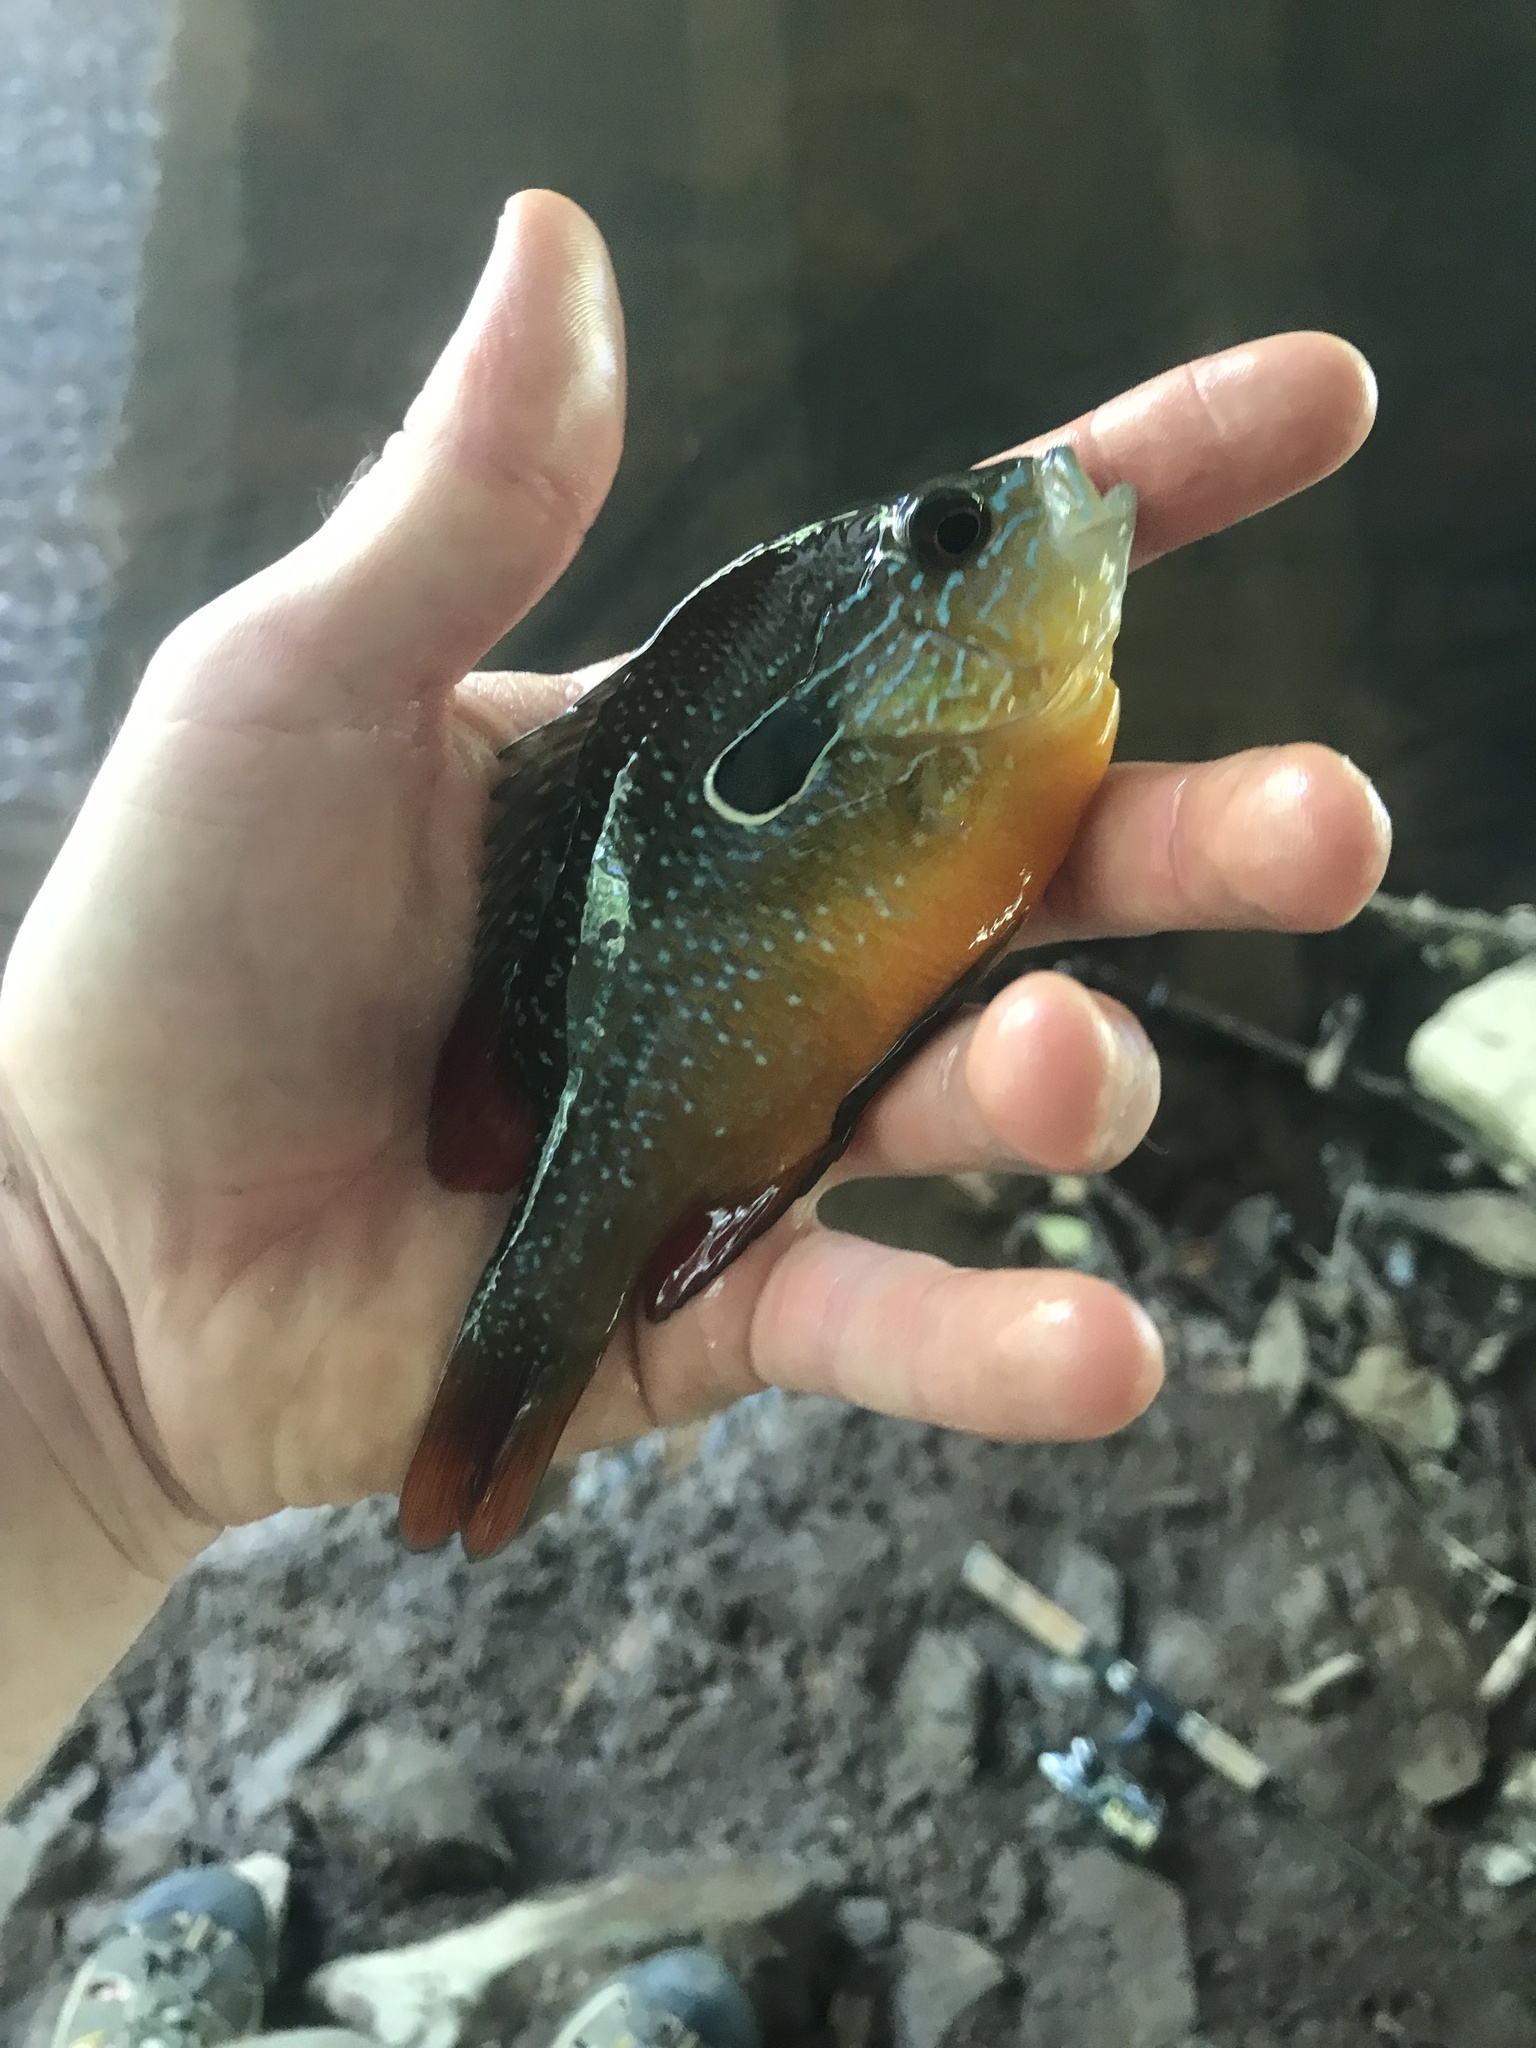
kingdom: Animalia
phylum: Chordata
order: Perciformes
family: Centrarchidae
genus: Lepomis
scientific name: Lepomis megalotis
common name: Longear sunfish
